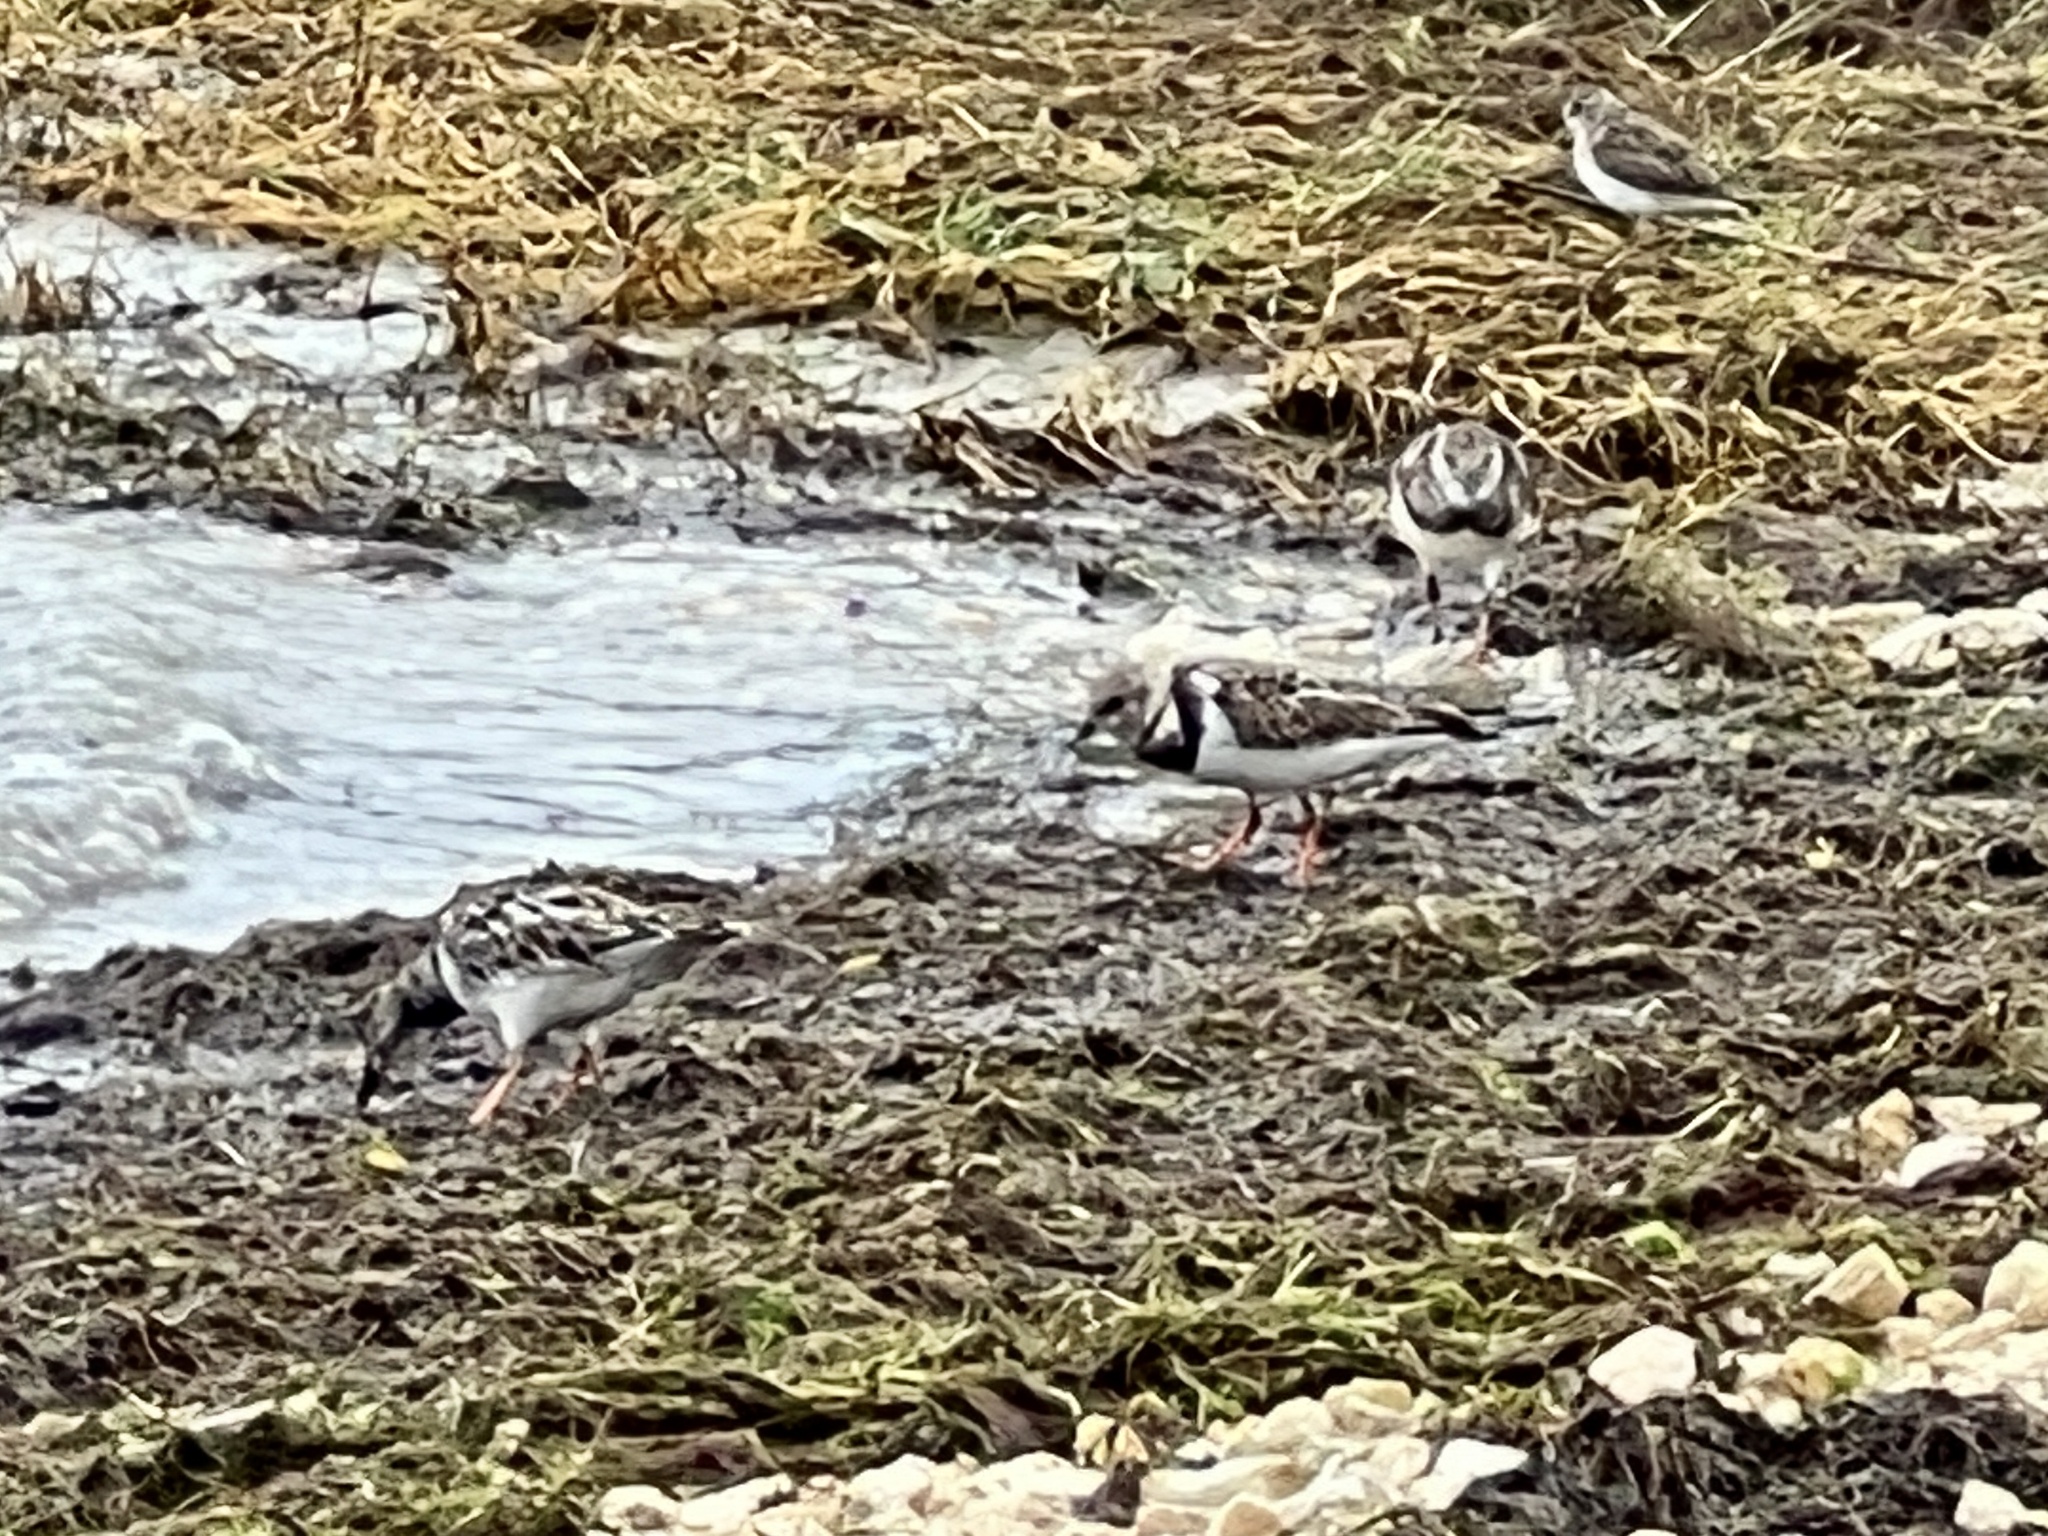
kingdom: Animalia
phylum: Chordata
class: Aves
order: Charadriiformes
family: Scolopacidae
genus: Arenaria
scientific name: Arenaria interpres
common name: Ruddy turnstone
